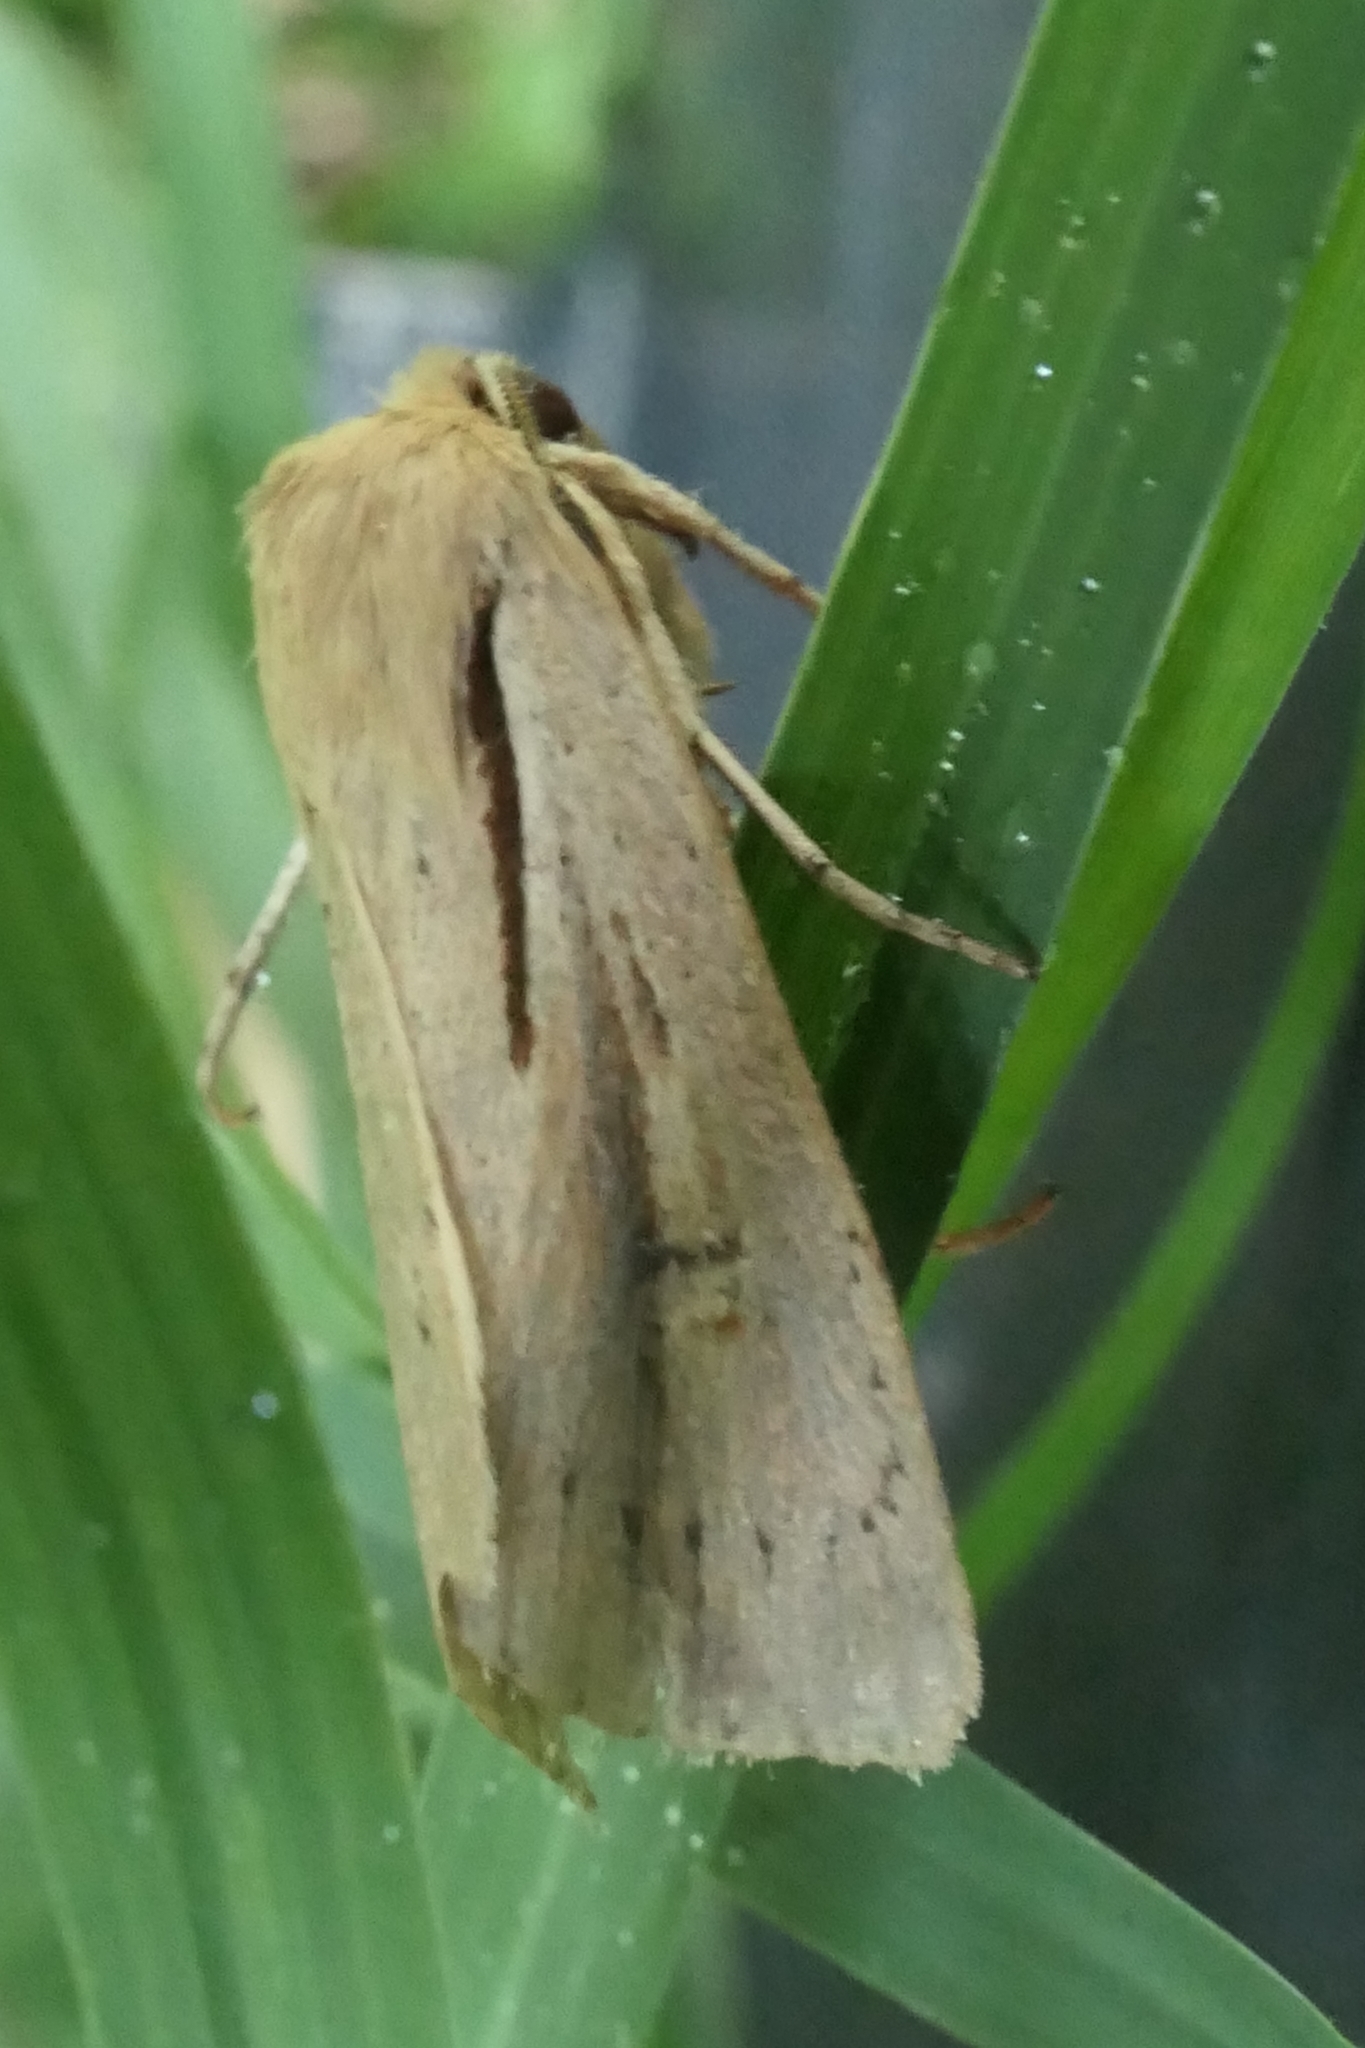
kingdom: Animalia
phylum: Arthropoda
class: Insecta
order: Lepidoptera
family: Noctuidae
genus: Ichneutica
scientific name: Ichneutica propria
